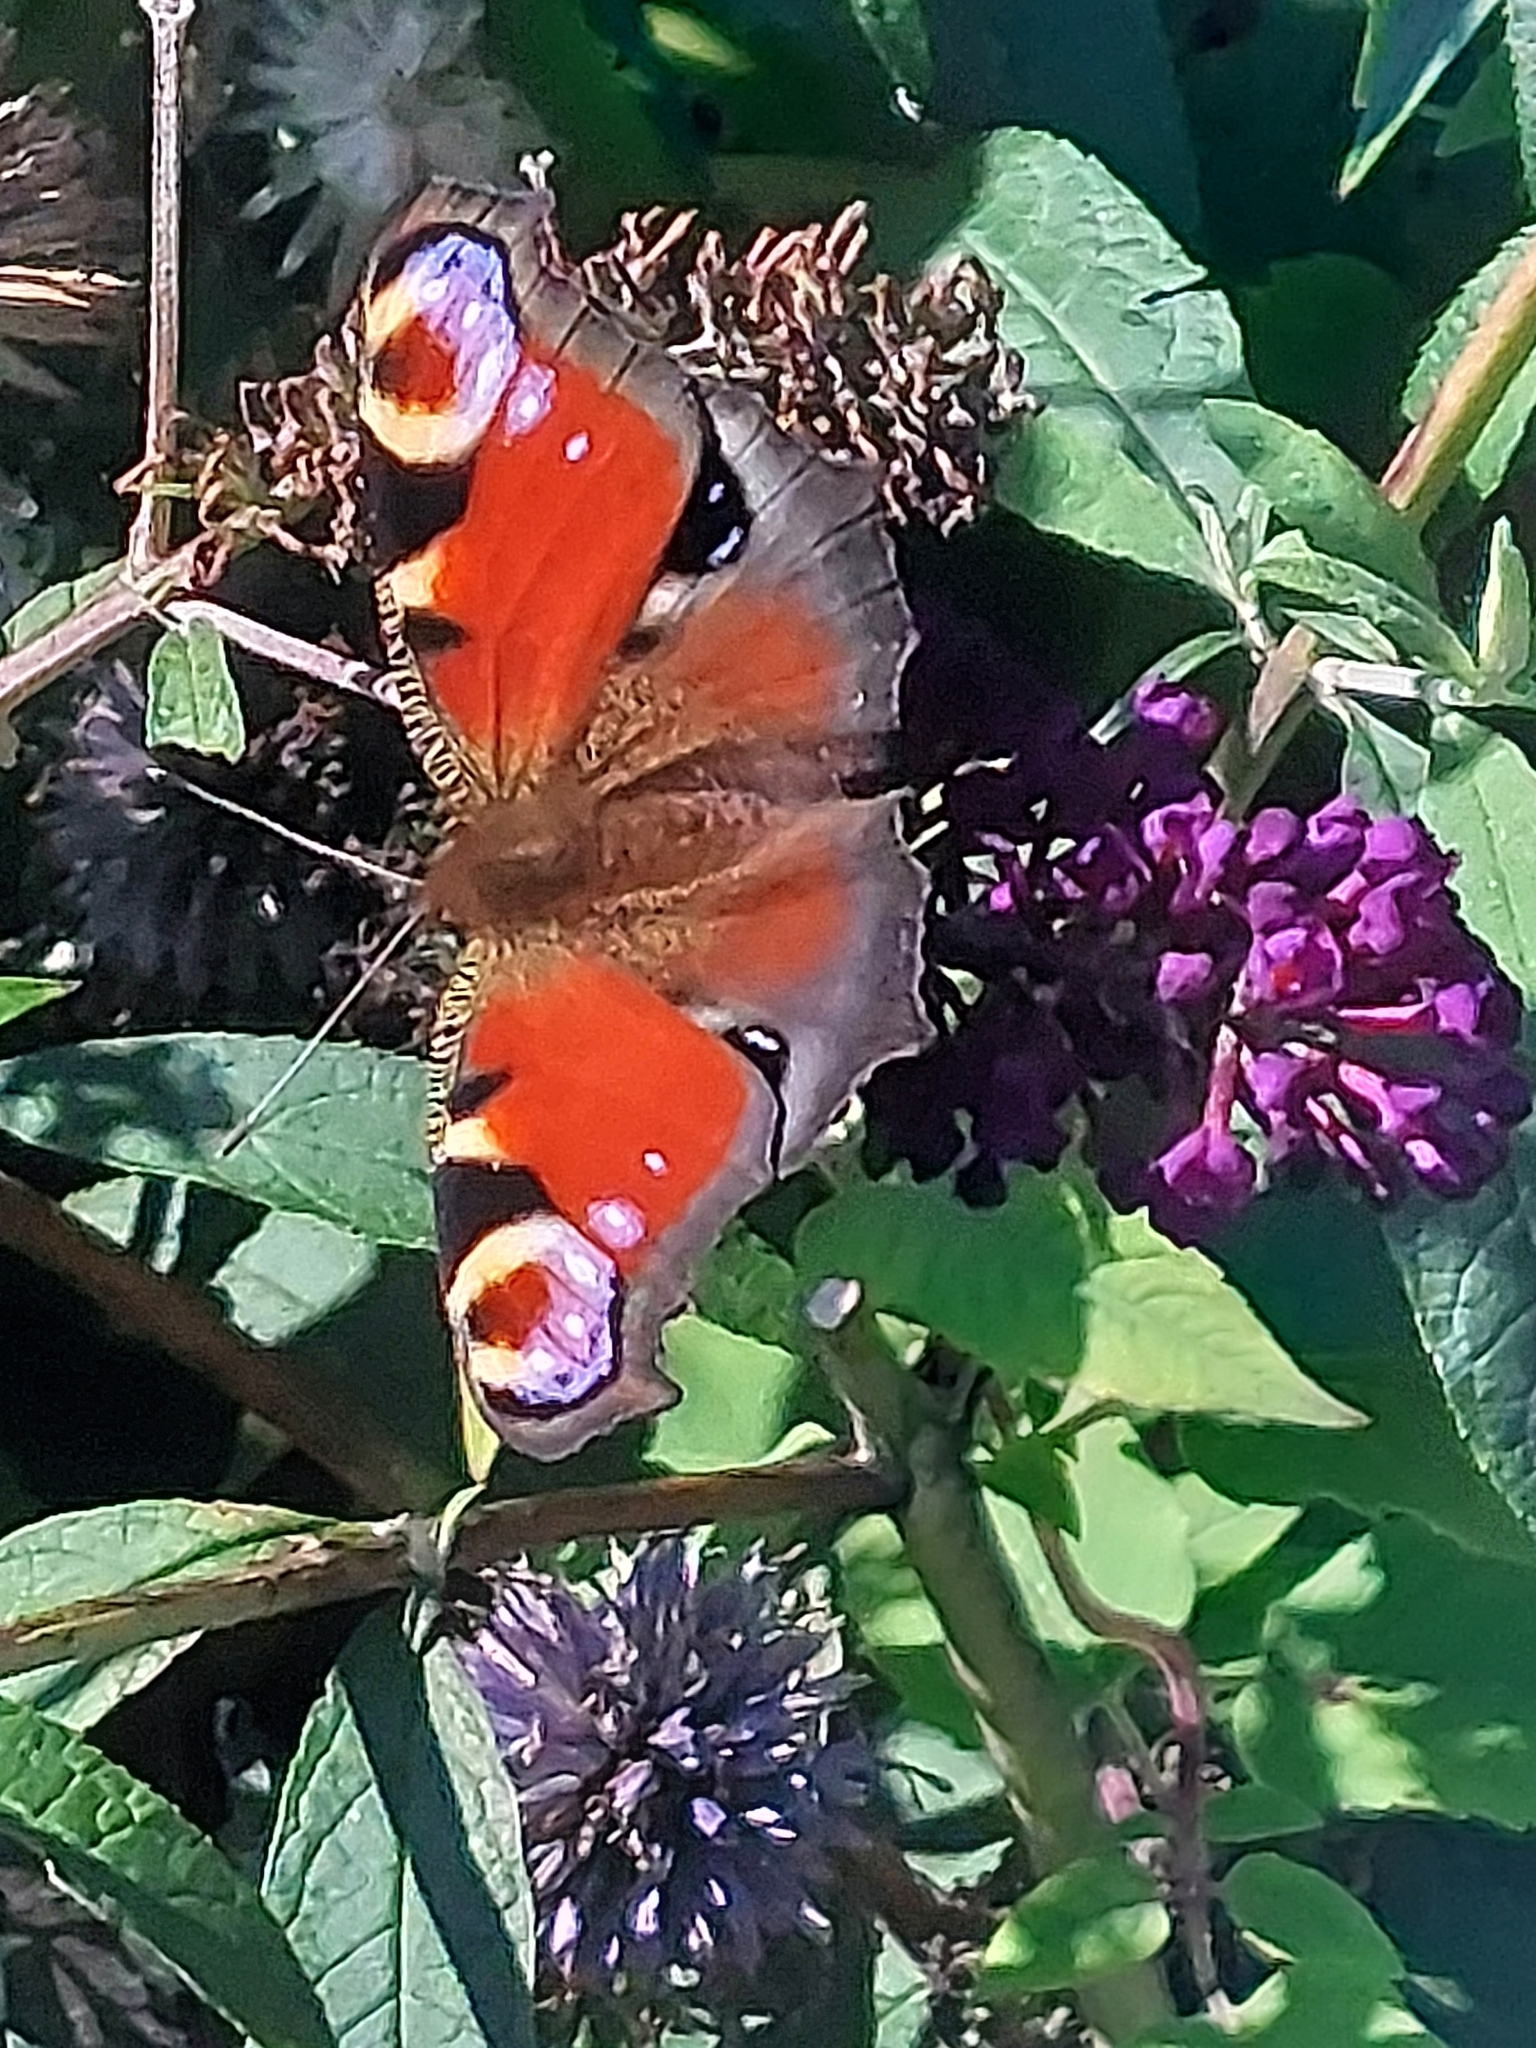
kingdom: Animalia
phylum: Arthropoda
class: Insecta
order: Lepidoptera
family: Nymphalidae
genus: Aglais
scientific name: Aglais io
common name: Peacock
